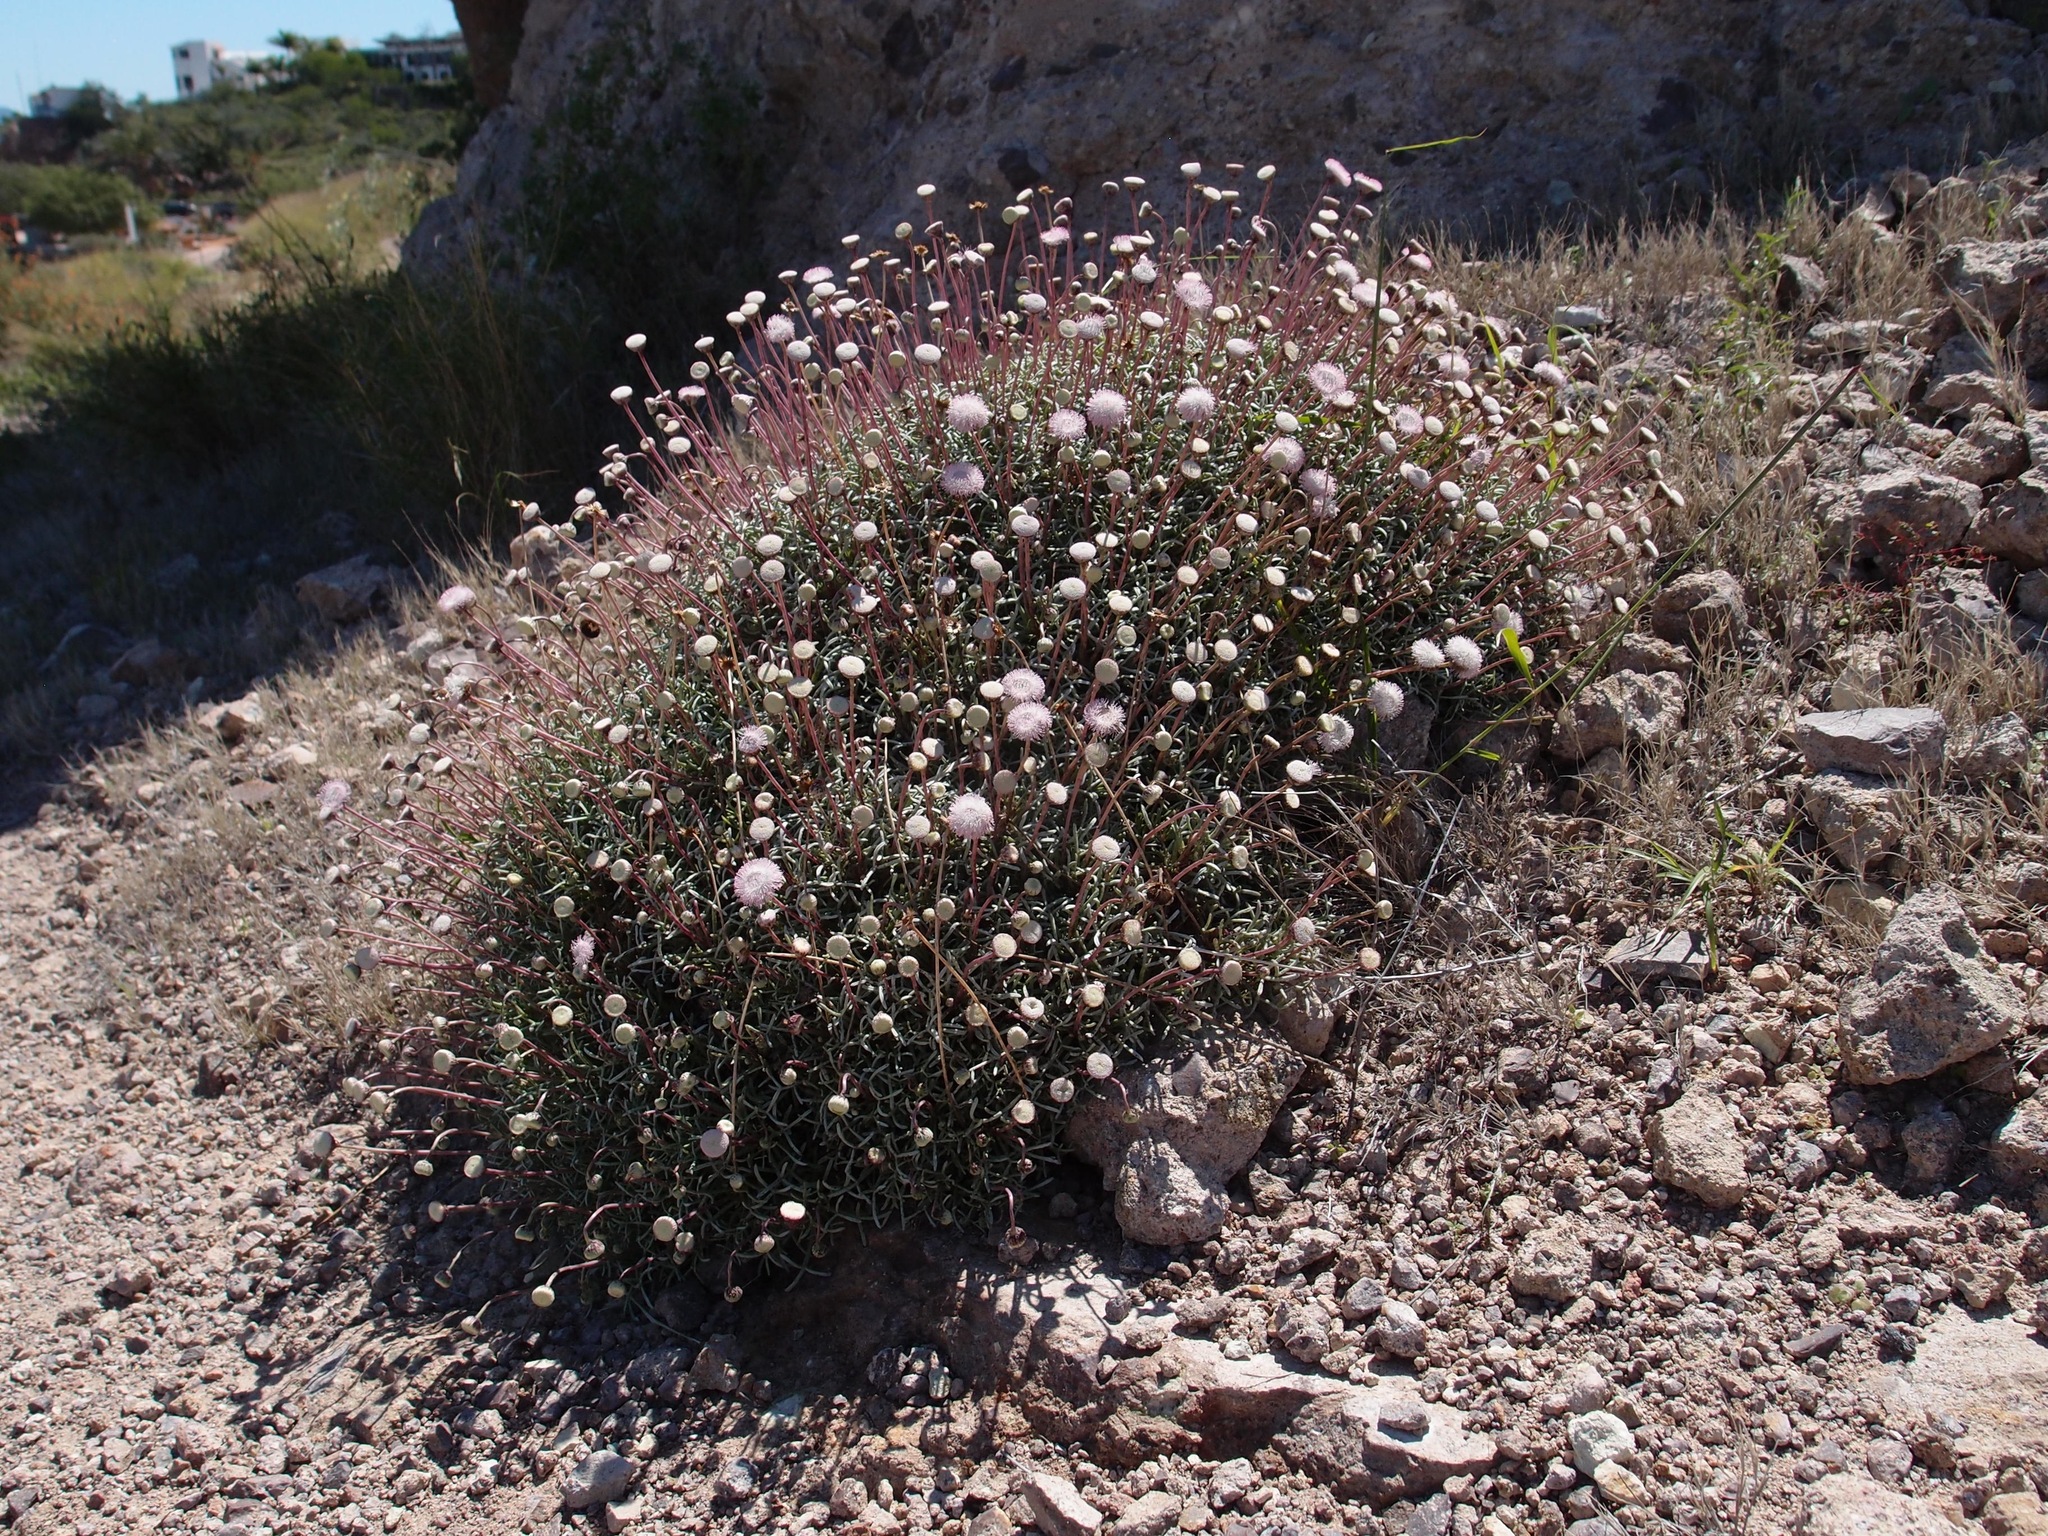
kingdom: Plantae
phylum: Tracheophyta
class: Magnoliopsida
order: Asterales
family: Asteraceae
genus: Hofmeisteria
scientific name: Hofmeisteria crassifolia
